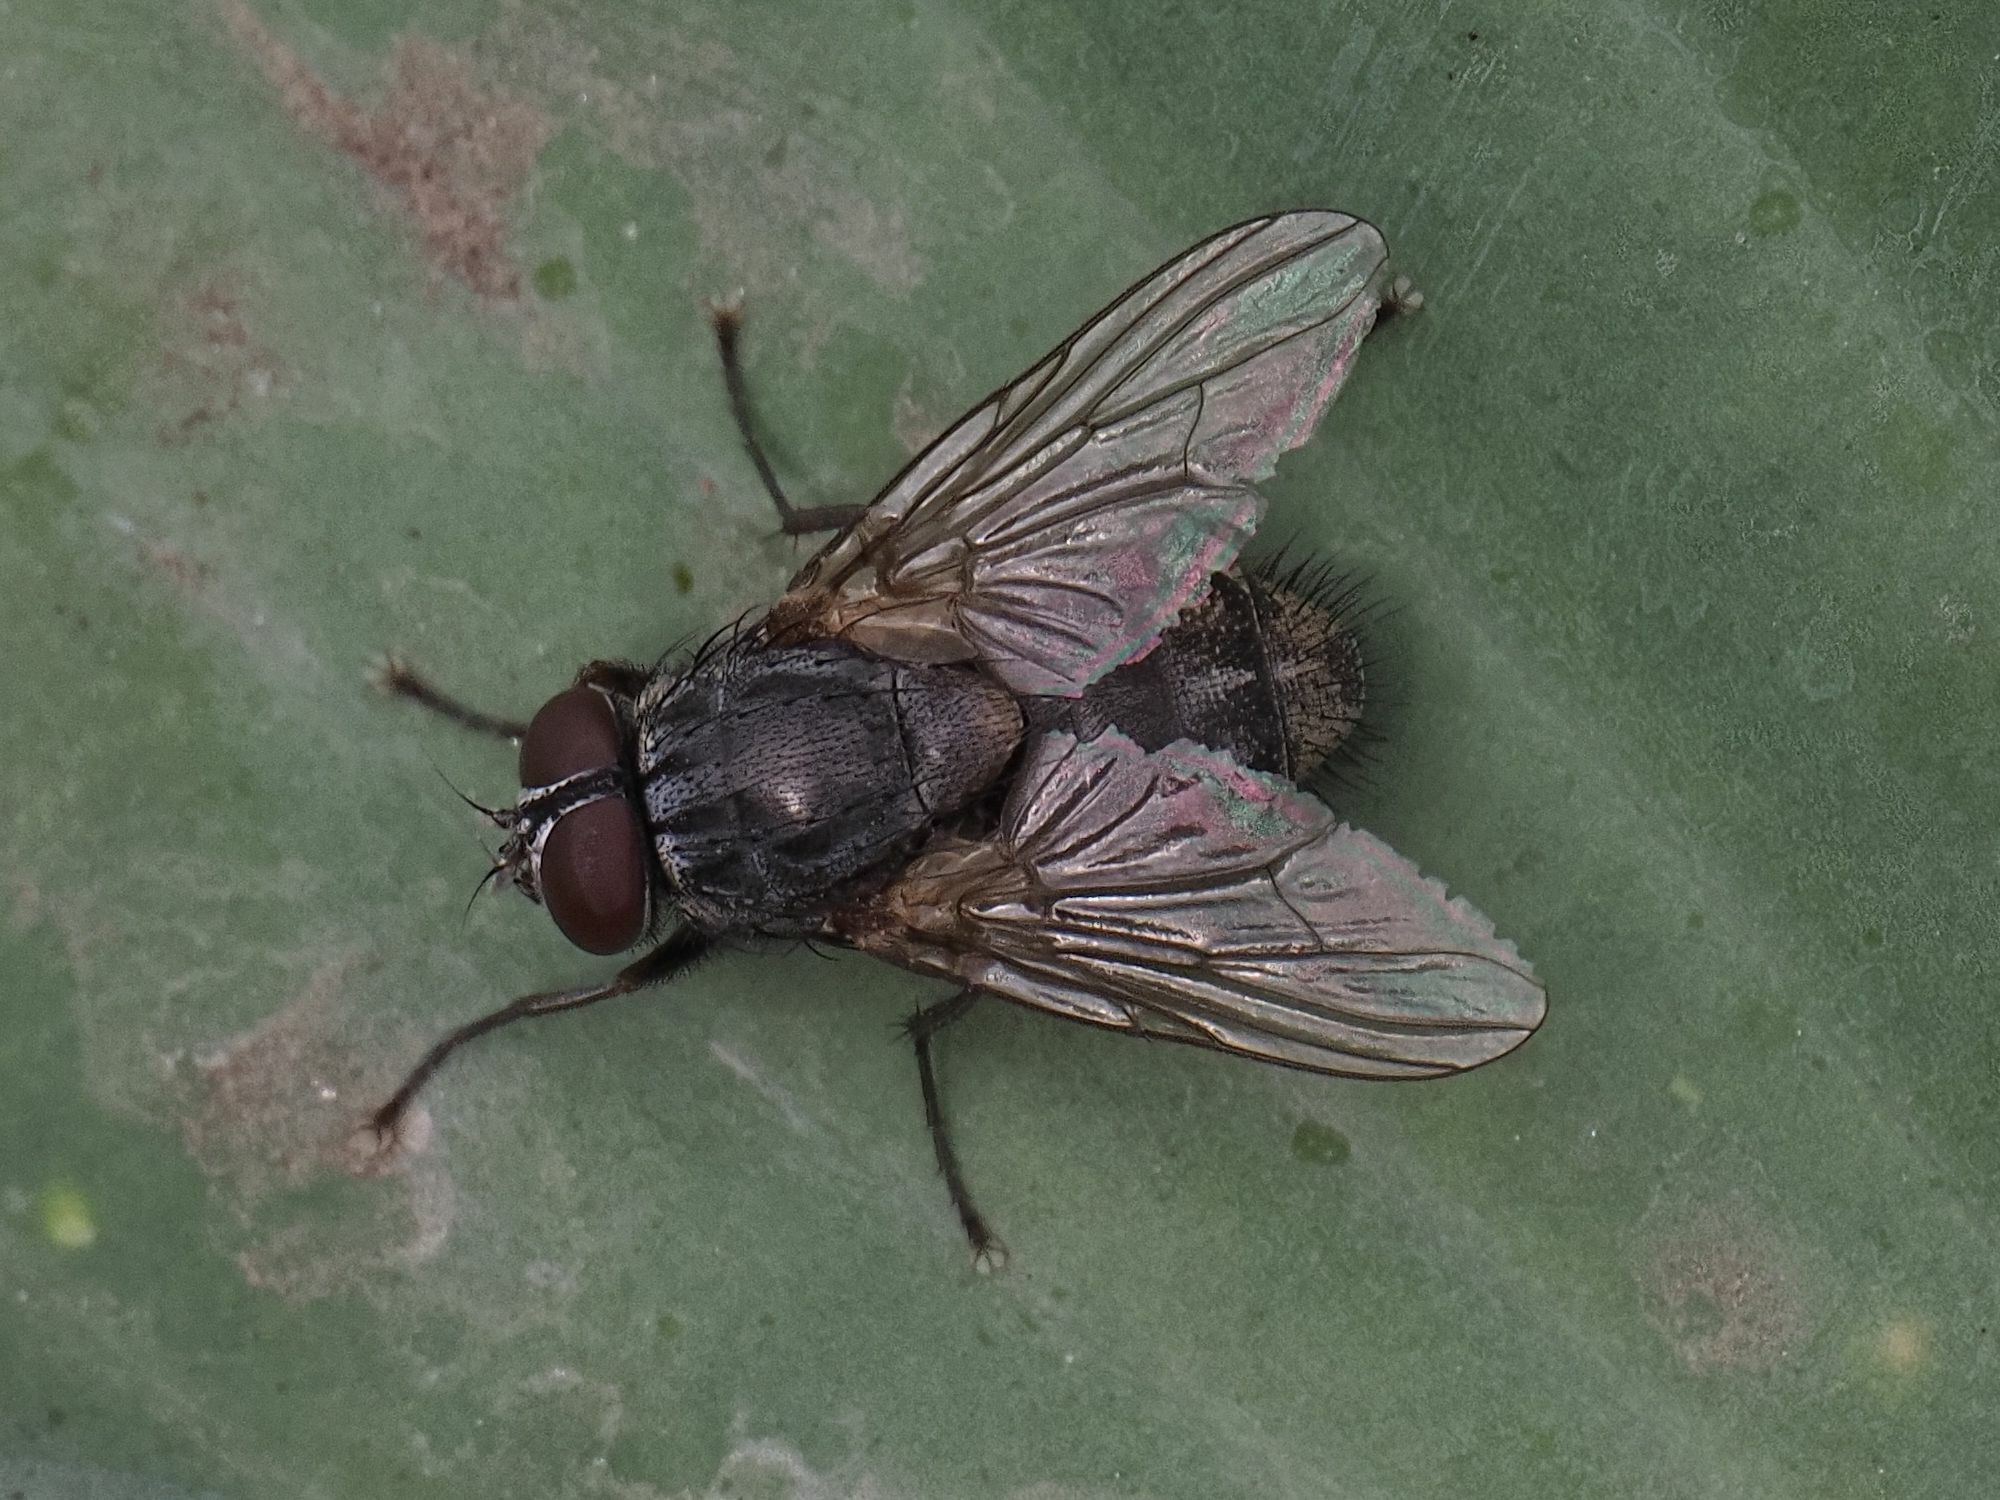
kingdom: Animalia
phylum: Arthropoda
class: Insecta
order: Diptera
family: Muscidae
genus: Muscina
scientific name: Muscina stabulans
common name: False stable fly
